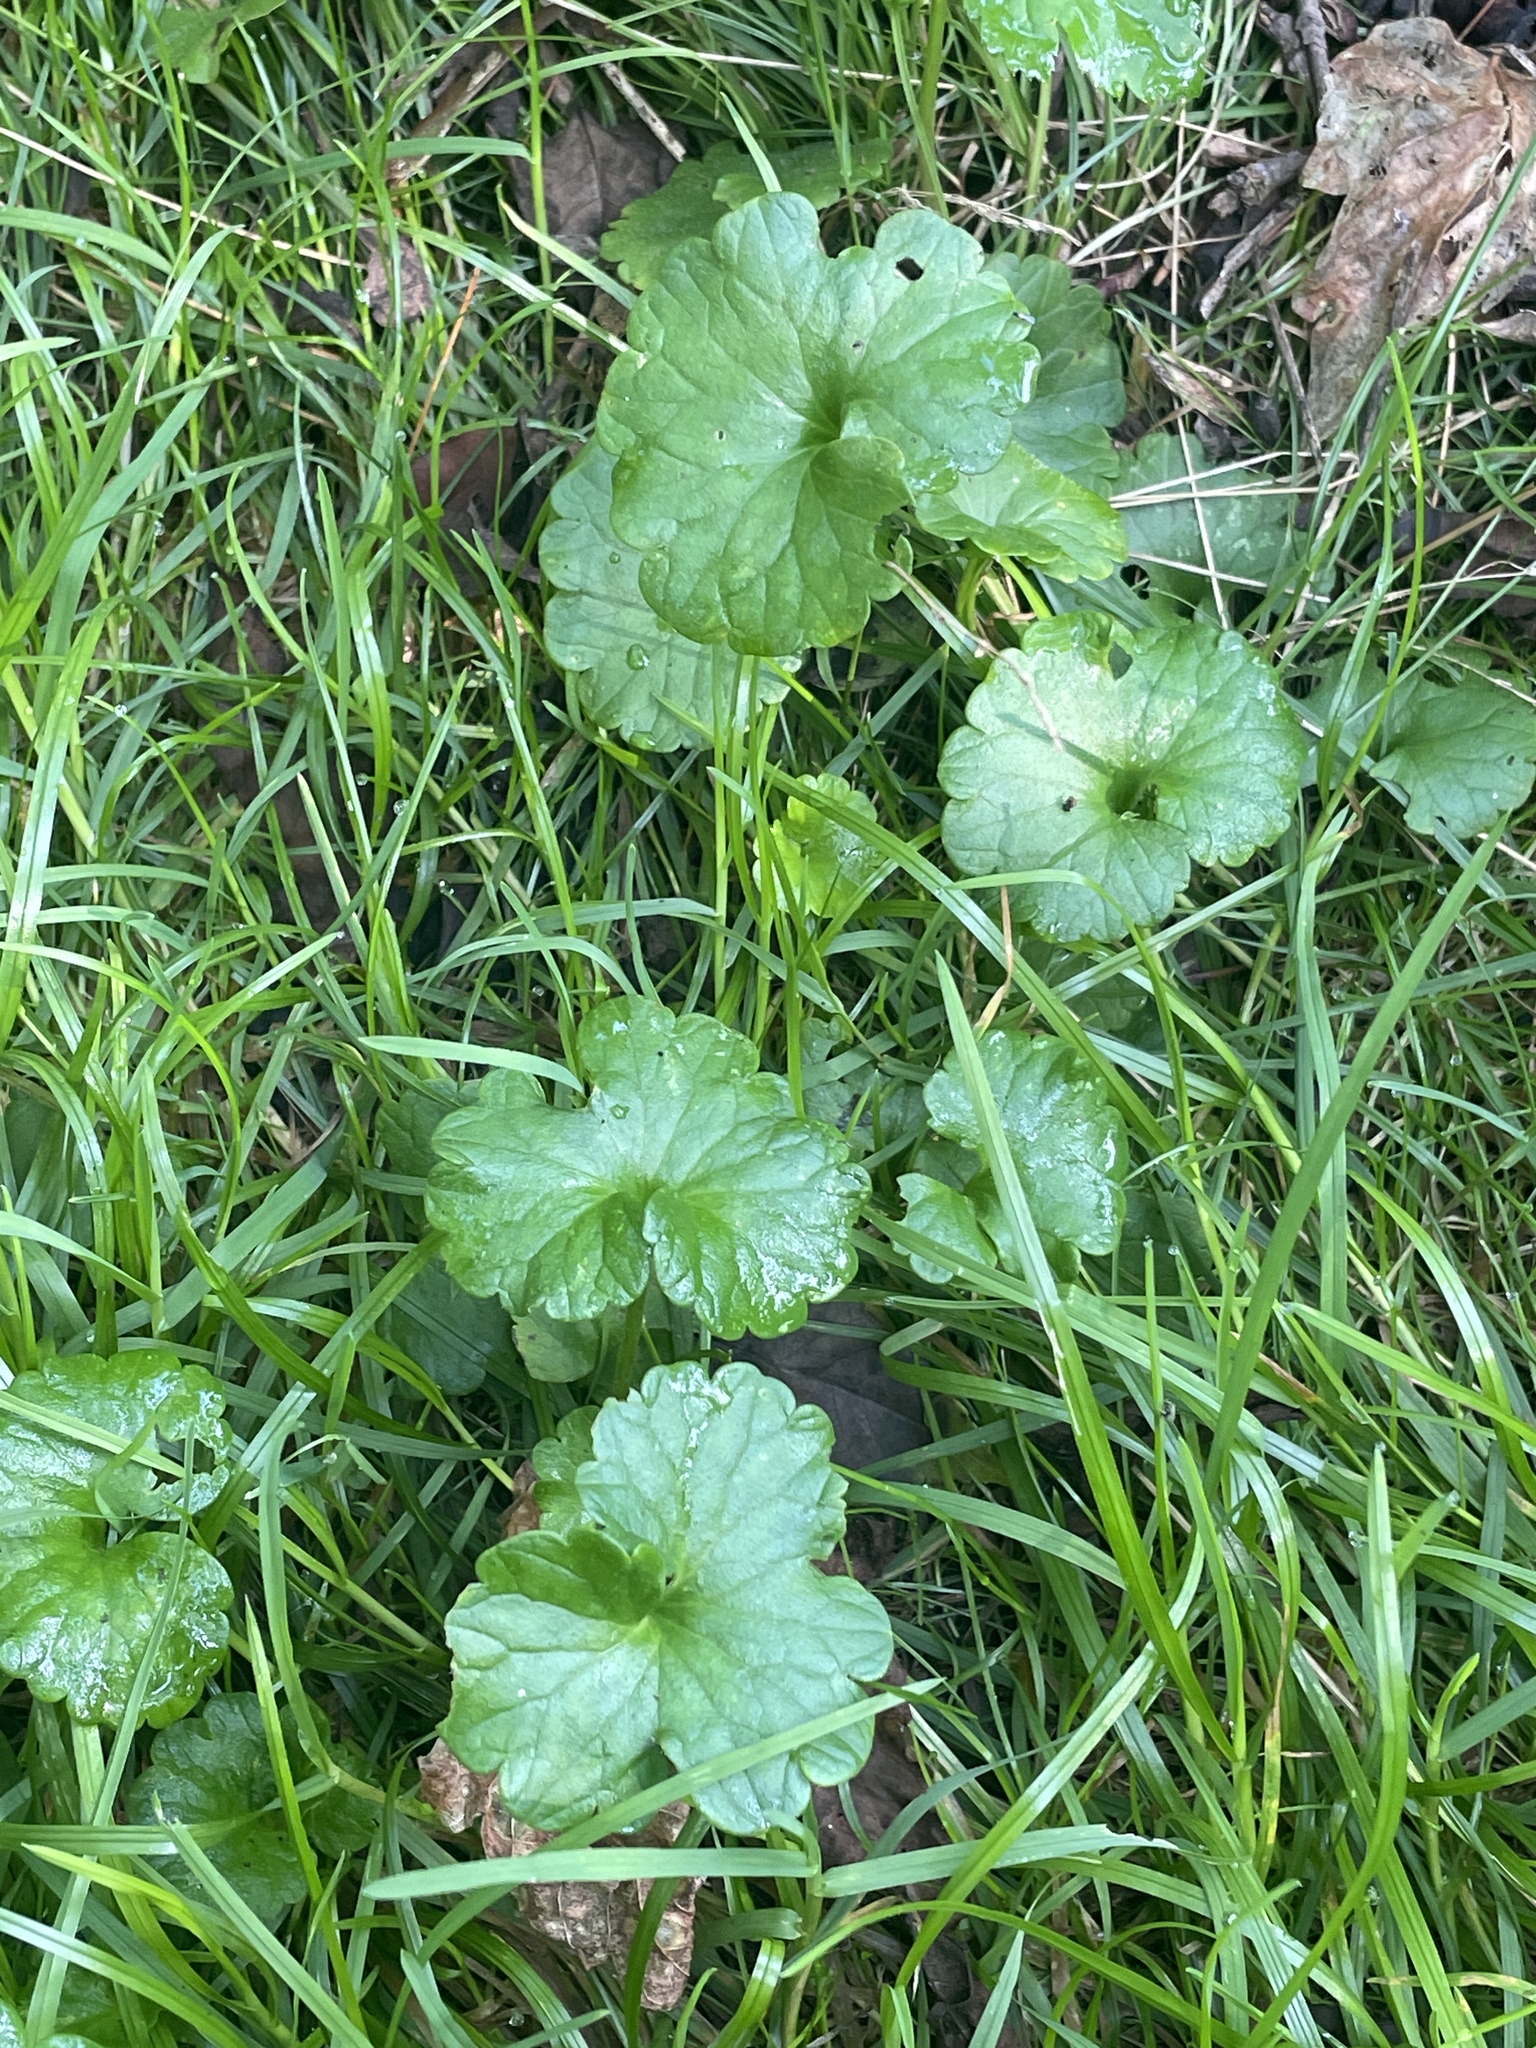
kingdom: Plantae
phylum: Tracheophyta
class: Magnoliopsida
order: Lamiales
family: Lamiaceae
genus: Glechoma
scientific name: Glechoma hederacea
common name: Ground ivy
